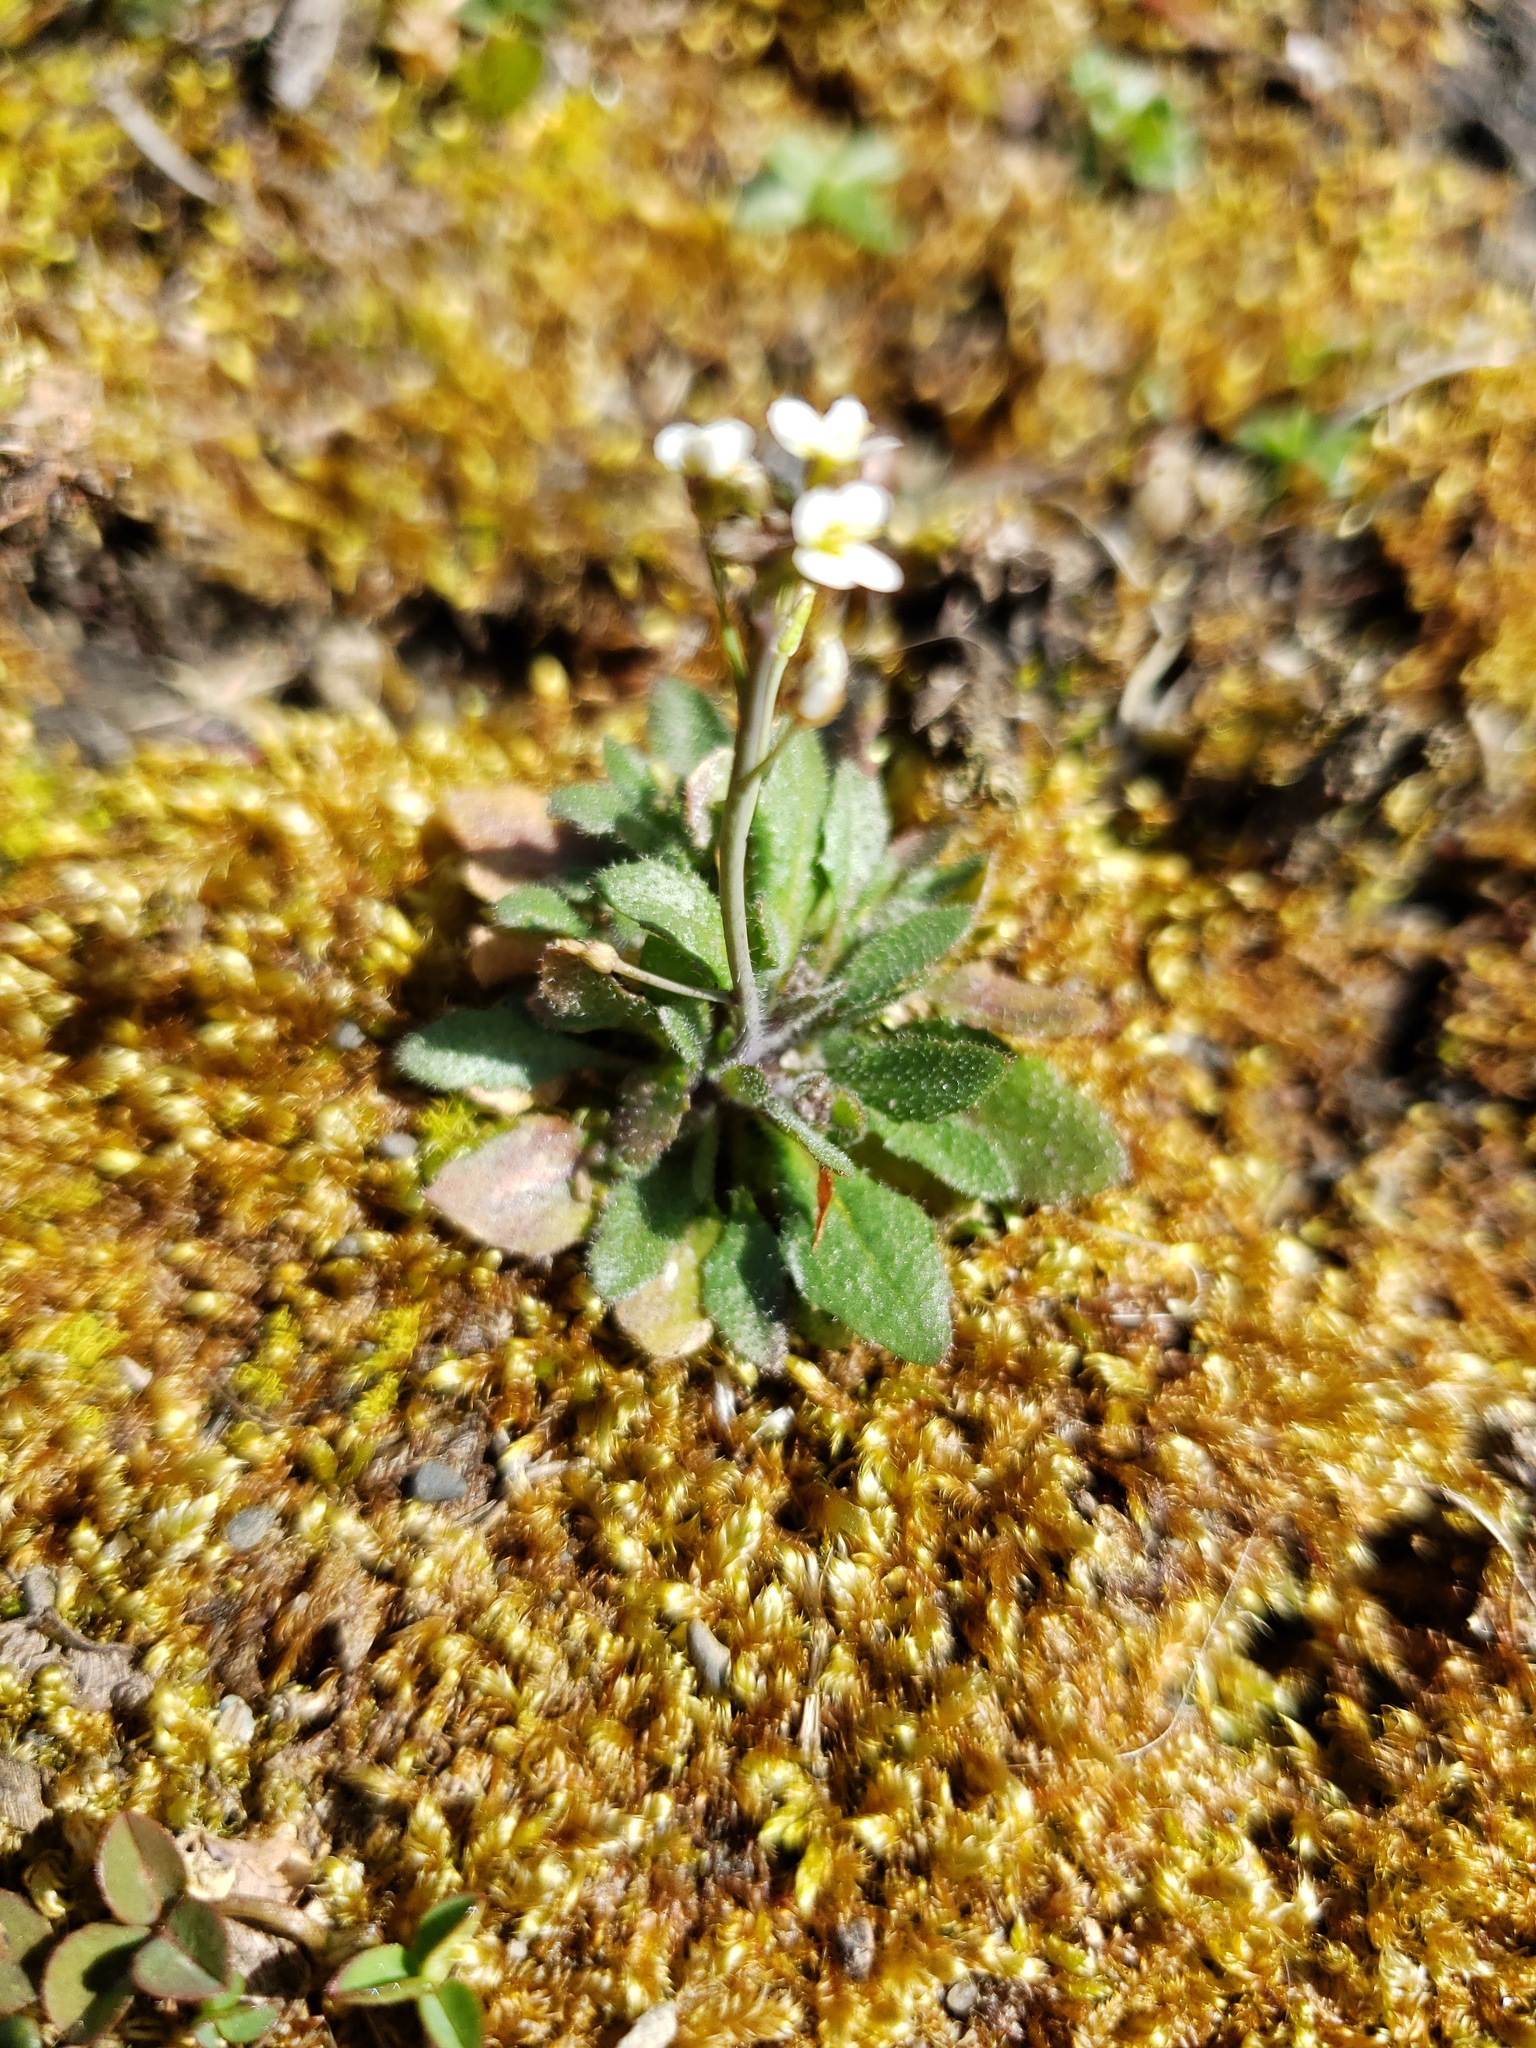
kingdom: Plantae
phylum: Tracheophyta
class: Magnoliopsida
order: Brassicales
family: Brassicaceae
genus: Draba
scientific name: Draba verna
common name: Spring draba
